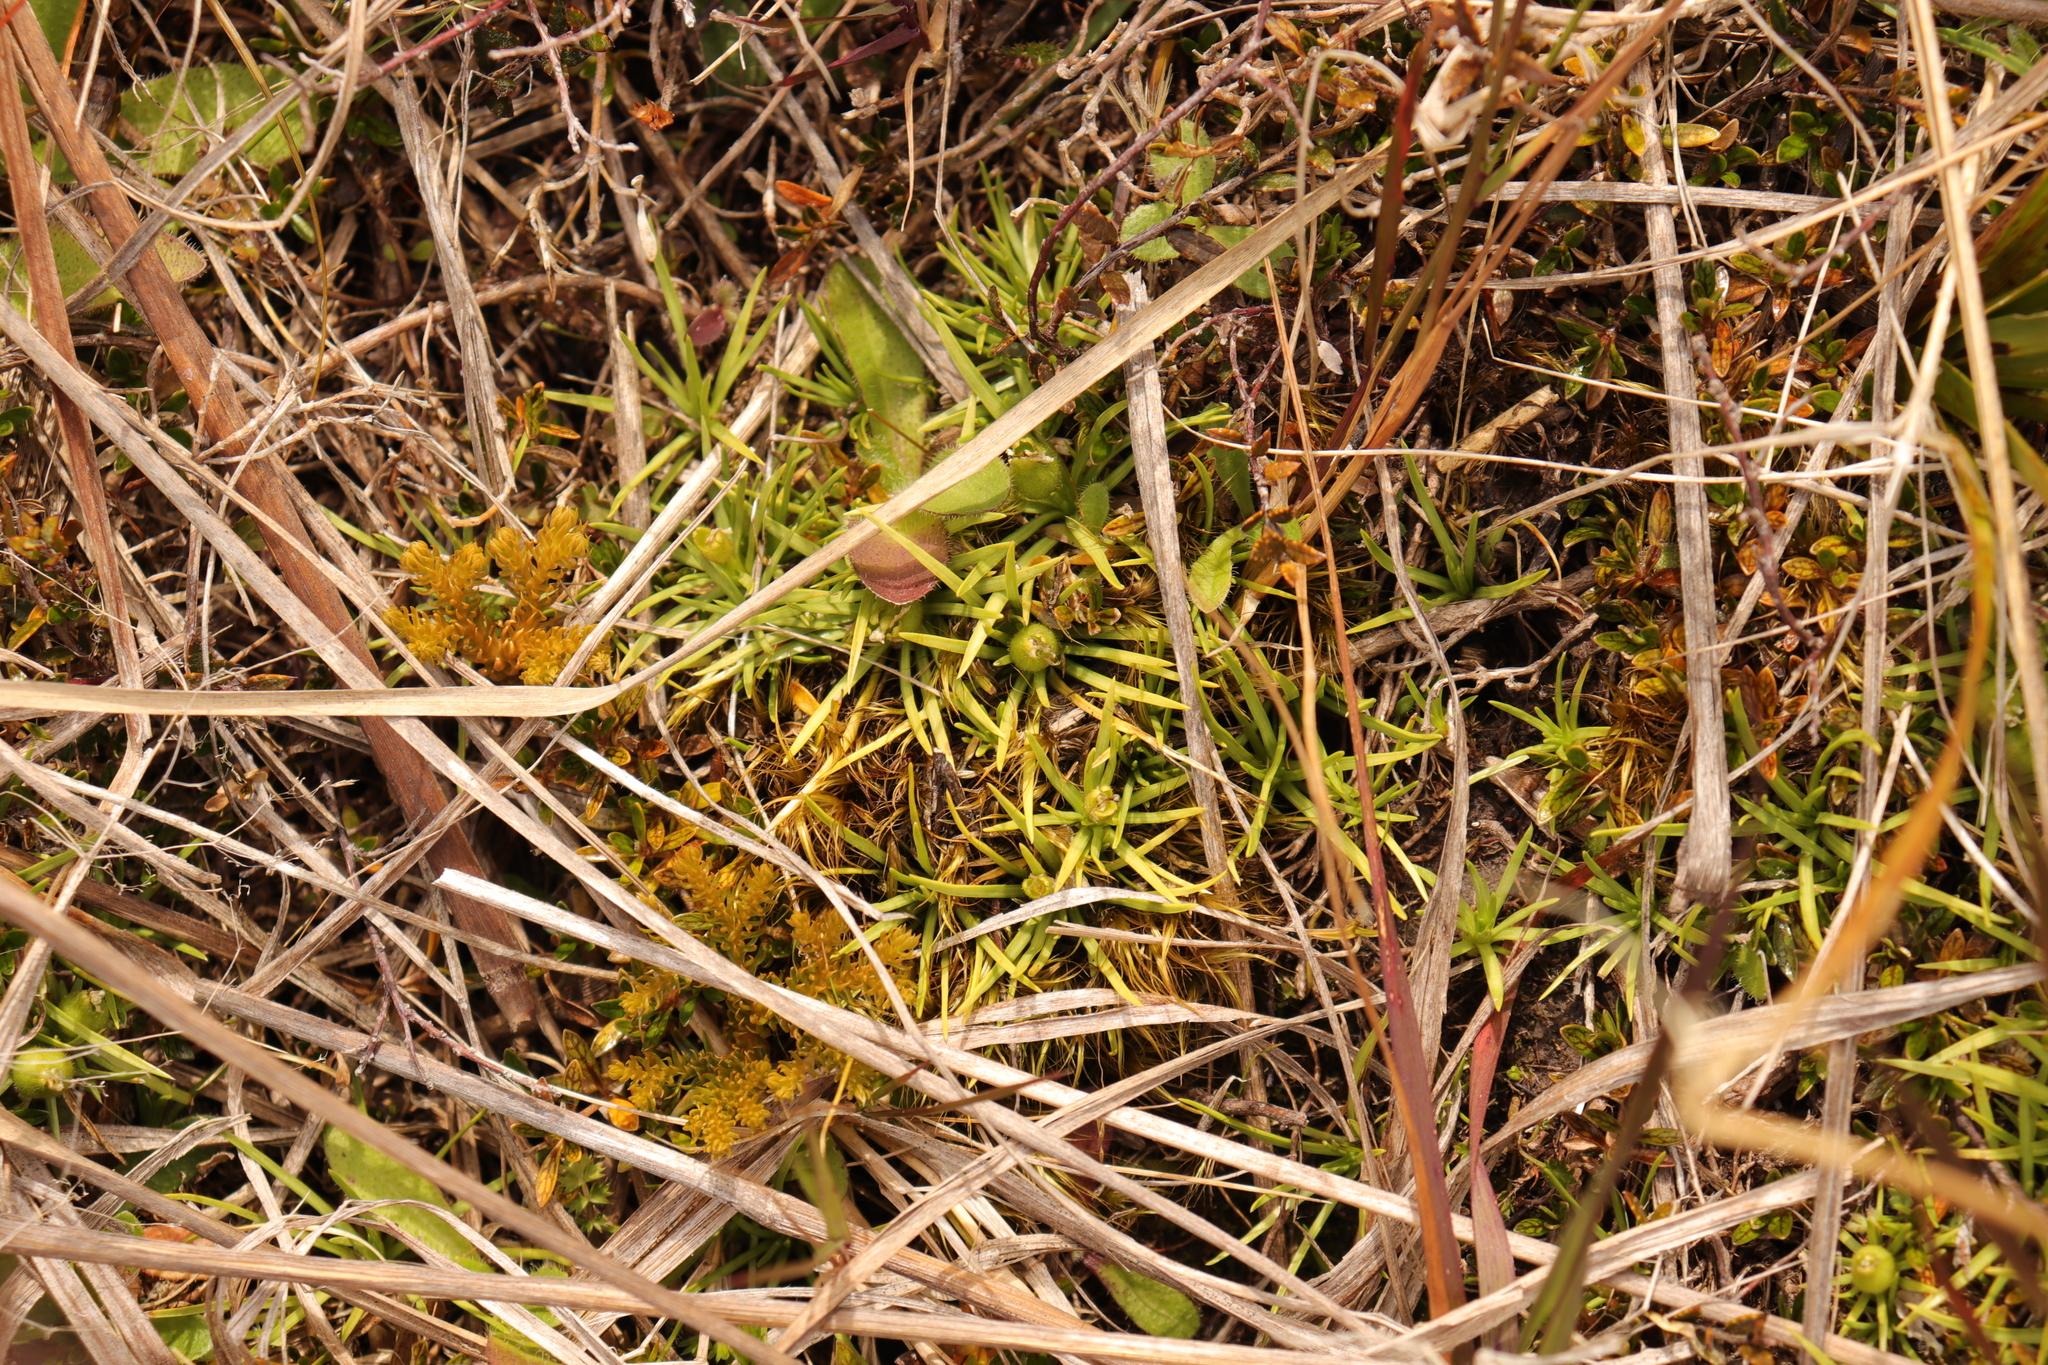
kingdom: Plantae
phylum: Tracheophyta
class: Magnoliopsida
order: Asterales
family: Stylidiaceae
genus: Oreostylidium
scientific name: Oreostylidium subulatum
